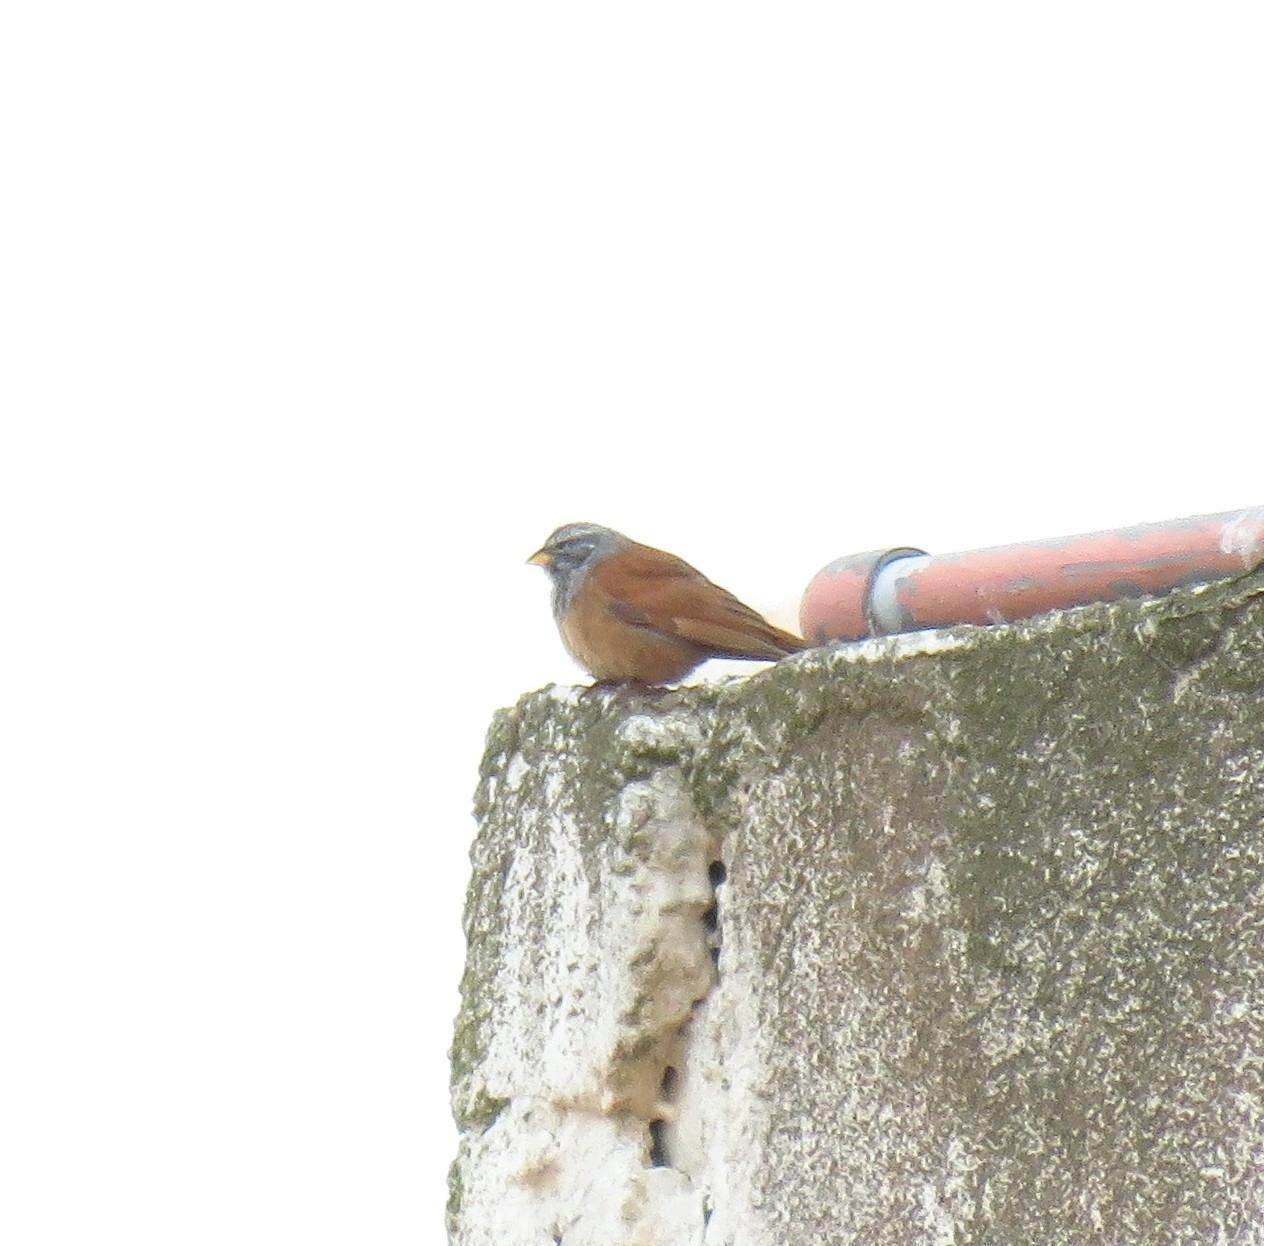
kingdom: Animalia
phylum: Chordata
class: Aves
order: Passeriformes
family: Emberizidae
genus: Emberiza
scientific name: Emberiza sahari
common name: House bunting
